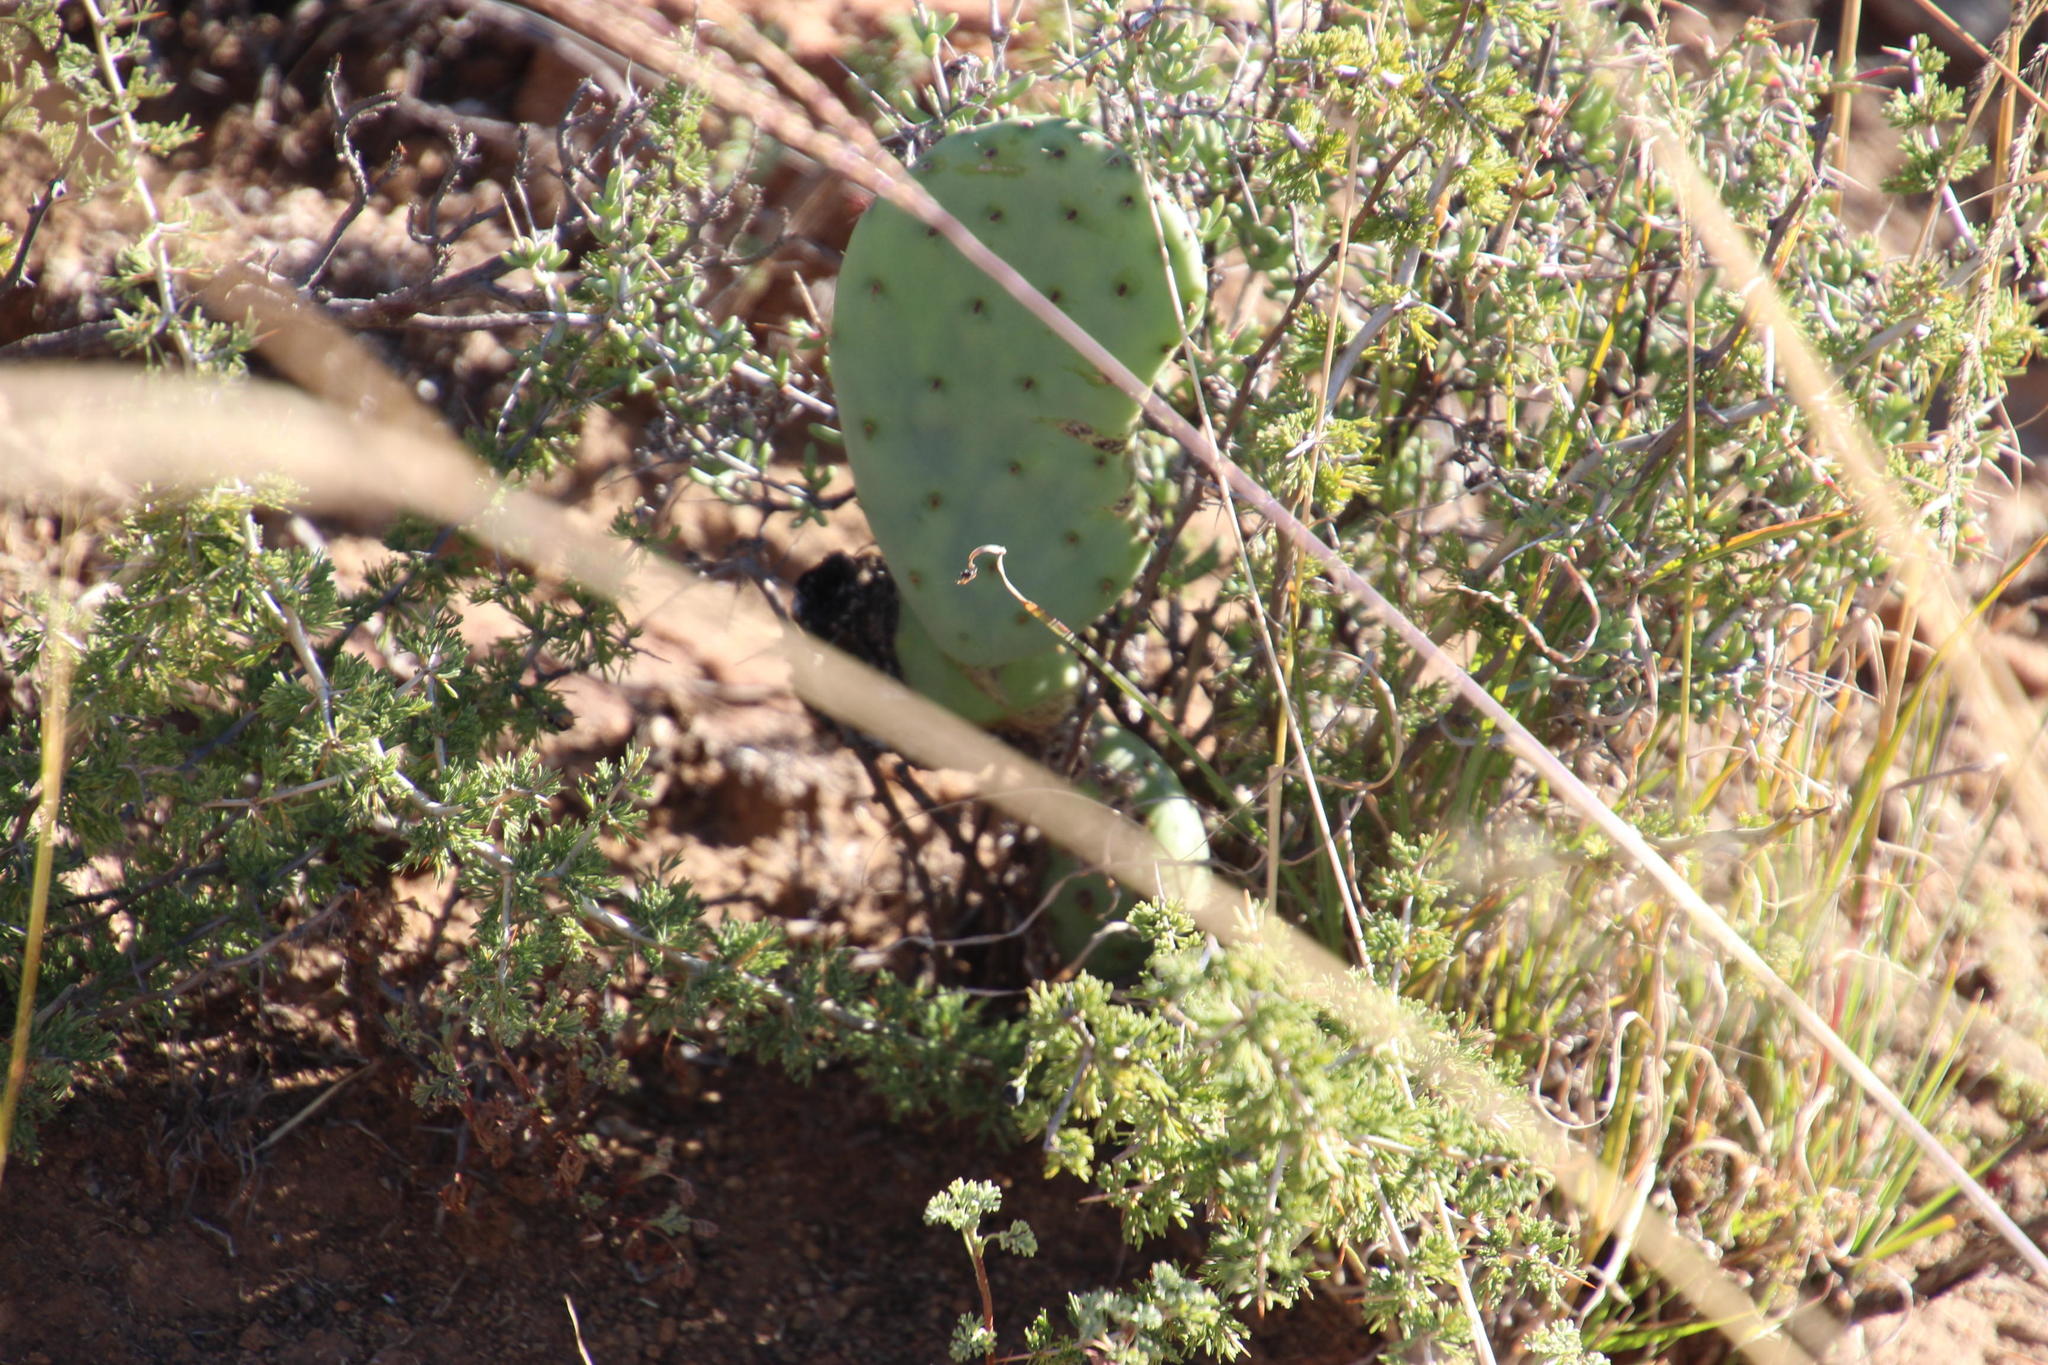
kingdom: Plantae
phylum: Tracheophyta
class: Magnoliopsida
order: Caryophyllales
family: Cactaceae
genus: Opuntia
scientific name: Opuntia ficus-indica
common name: Barbary fig
